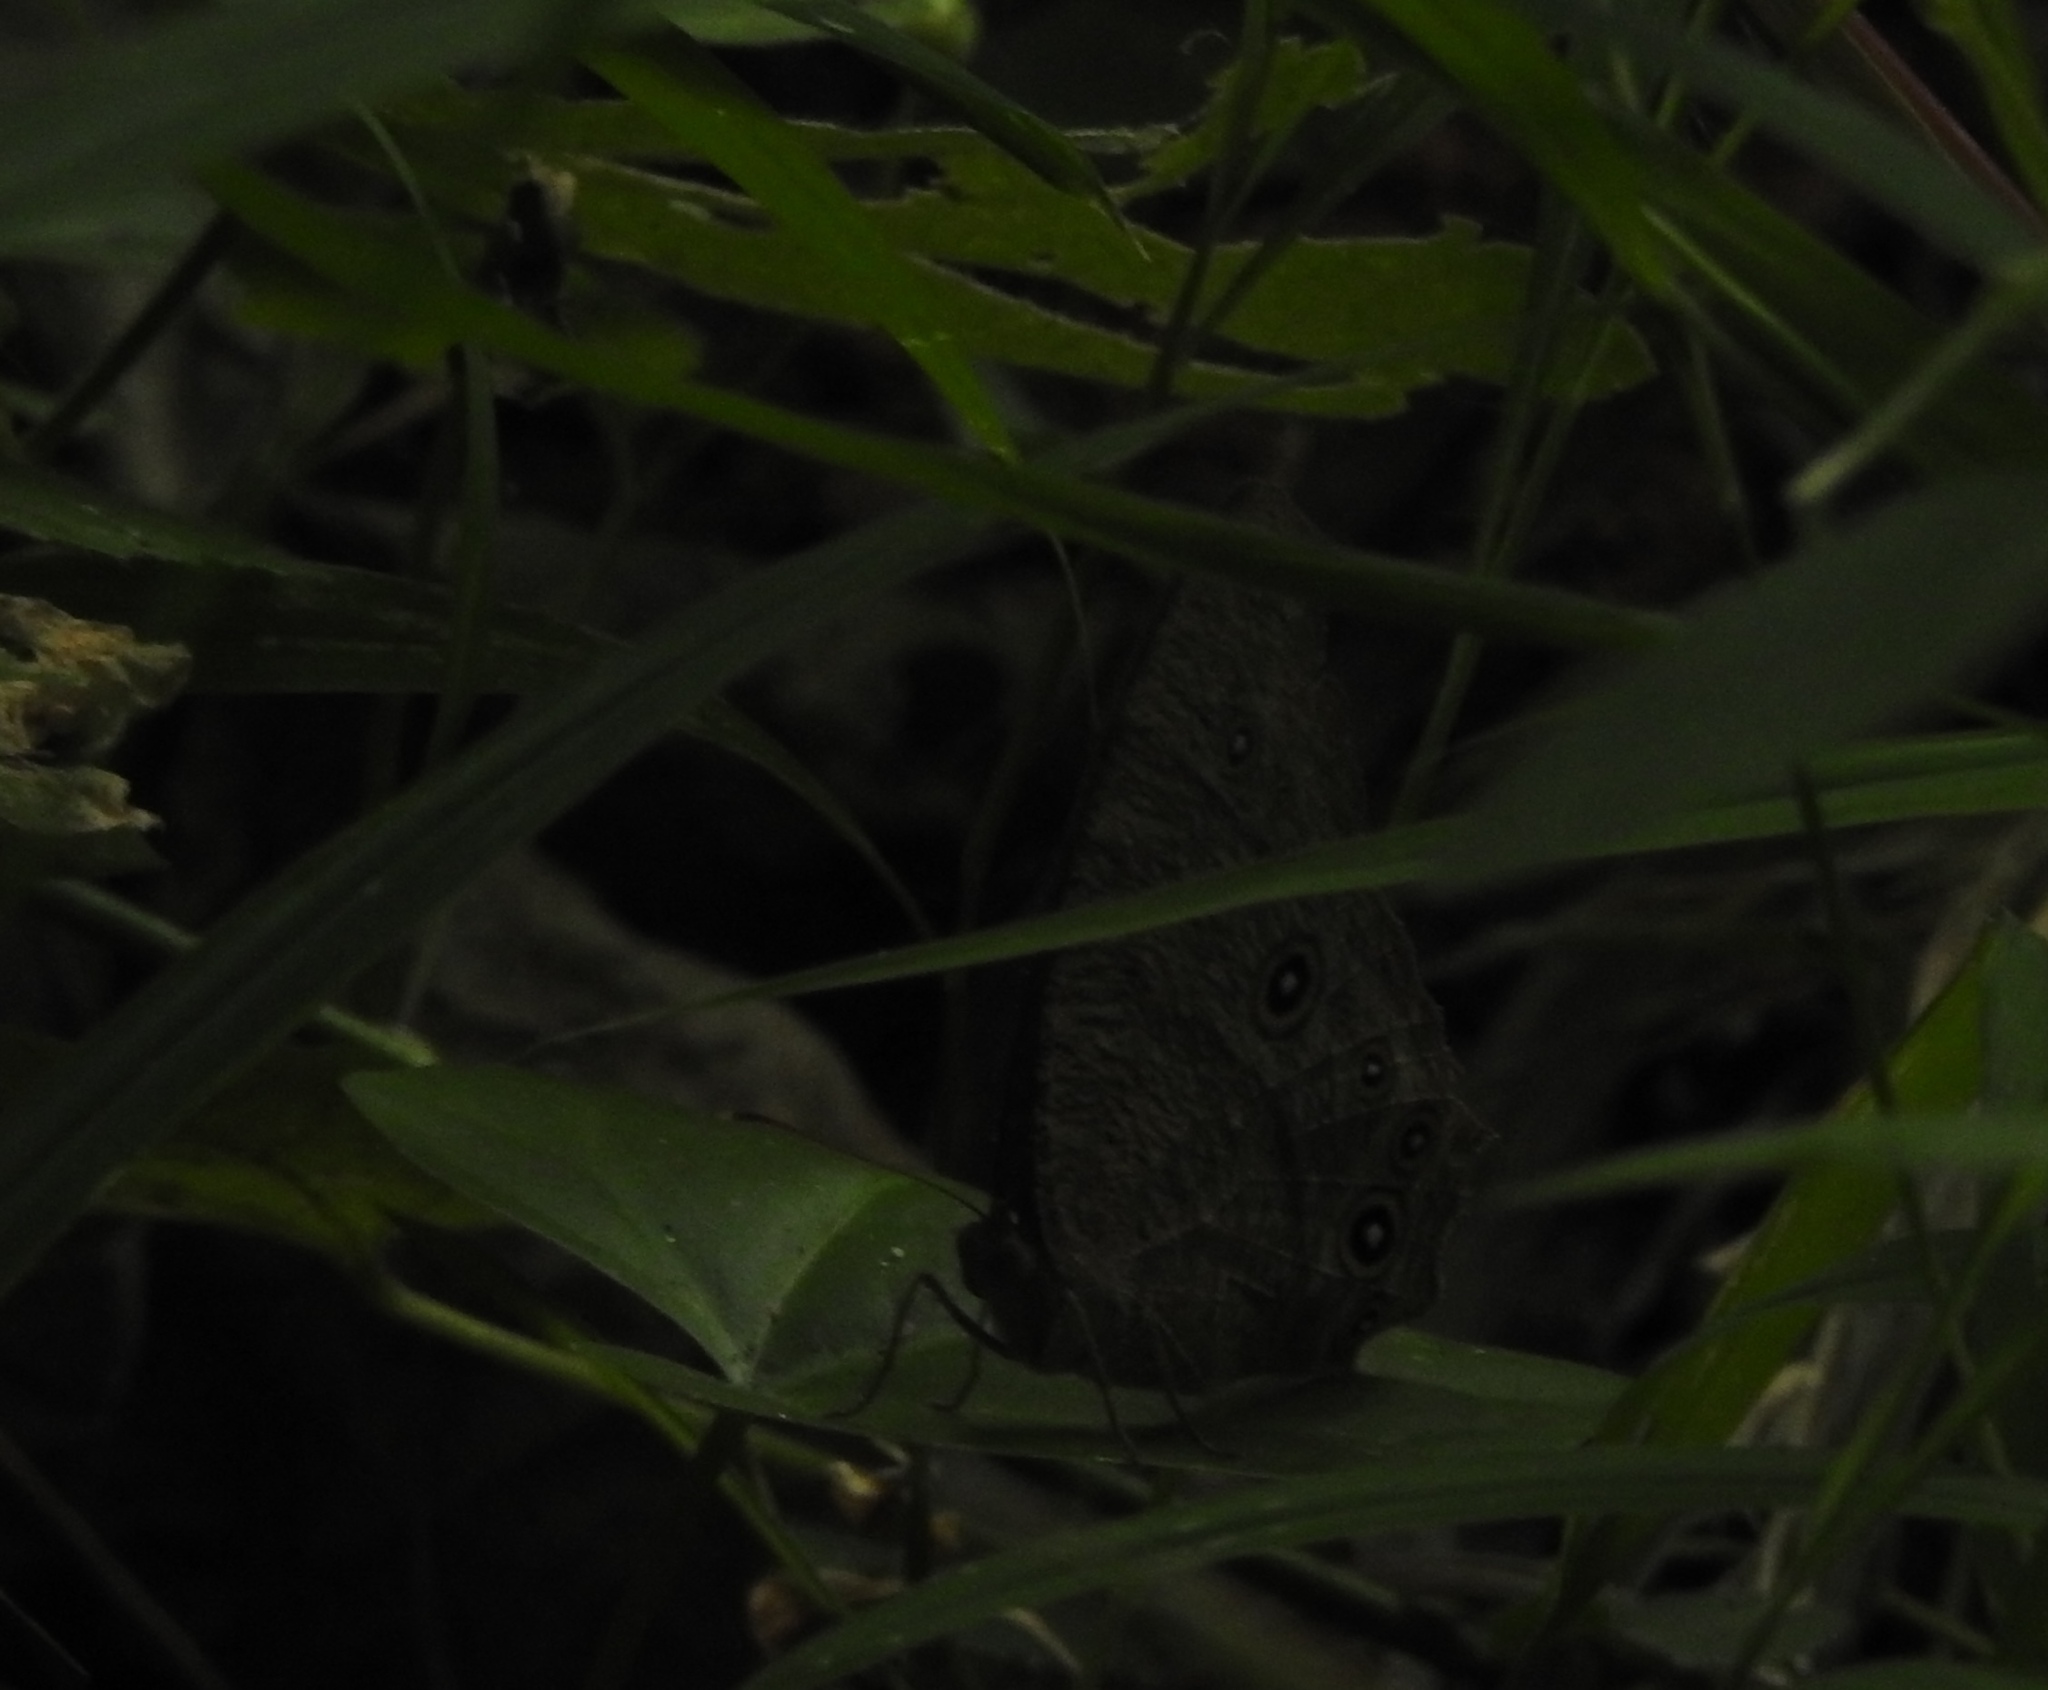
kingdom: Animalia
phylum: Arthropoda
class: Insecta
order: Lepidoptera
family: Nymphalidae
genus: Melanitis
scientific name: Melanitis leda
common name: Twilight brown
